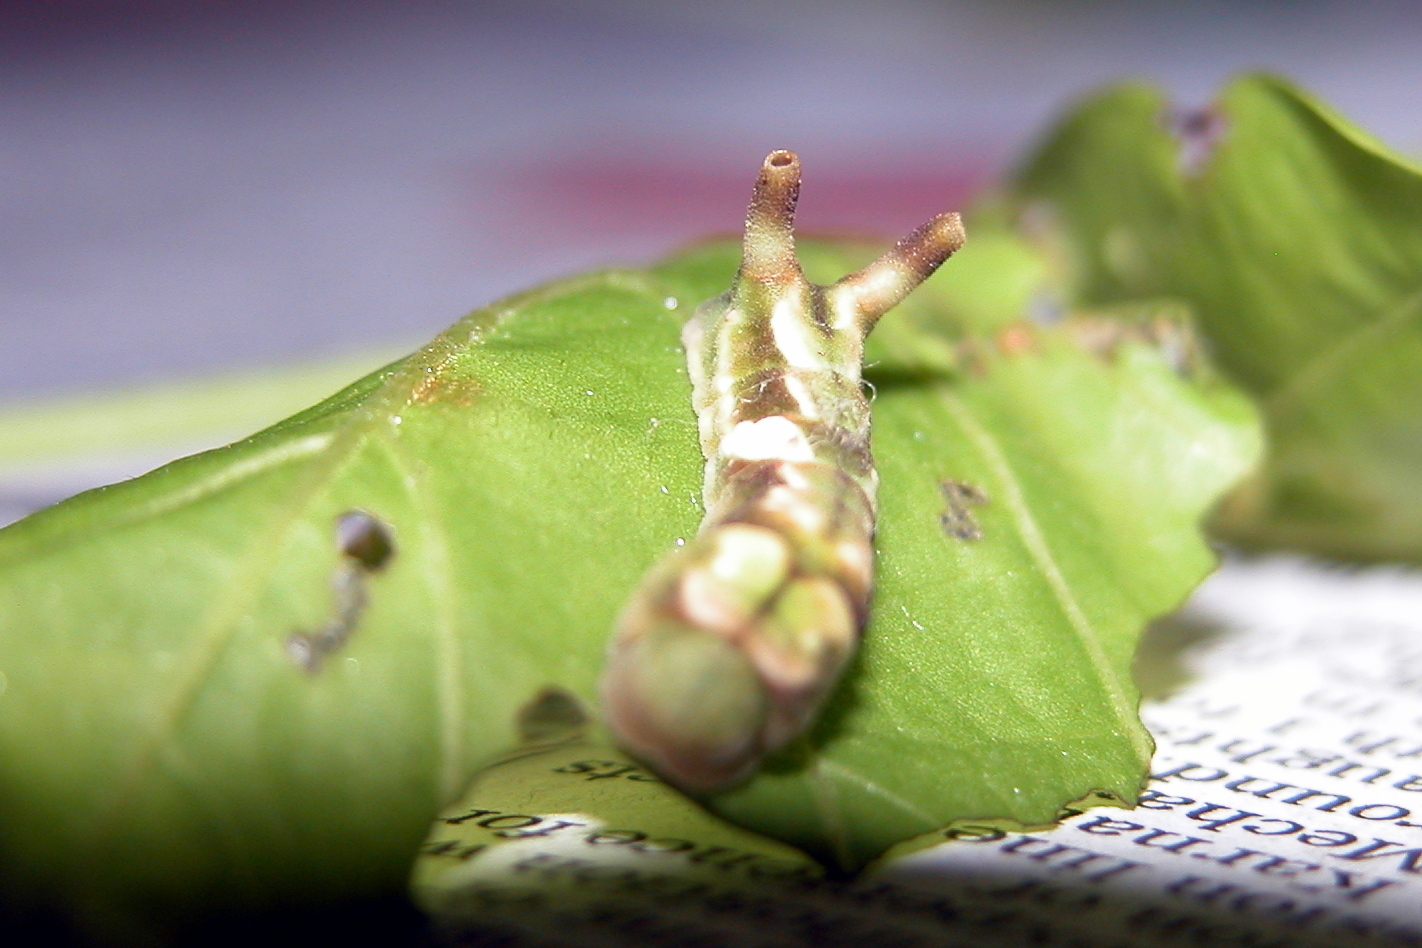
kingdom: Animalia
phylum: Arthropoda
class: Insecta
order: Lepidoptera
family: Lycaenidae
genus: Curetis
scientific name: Curetis thetis
